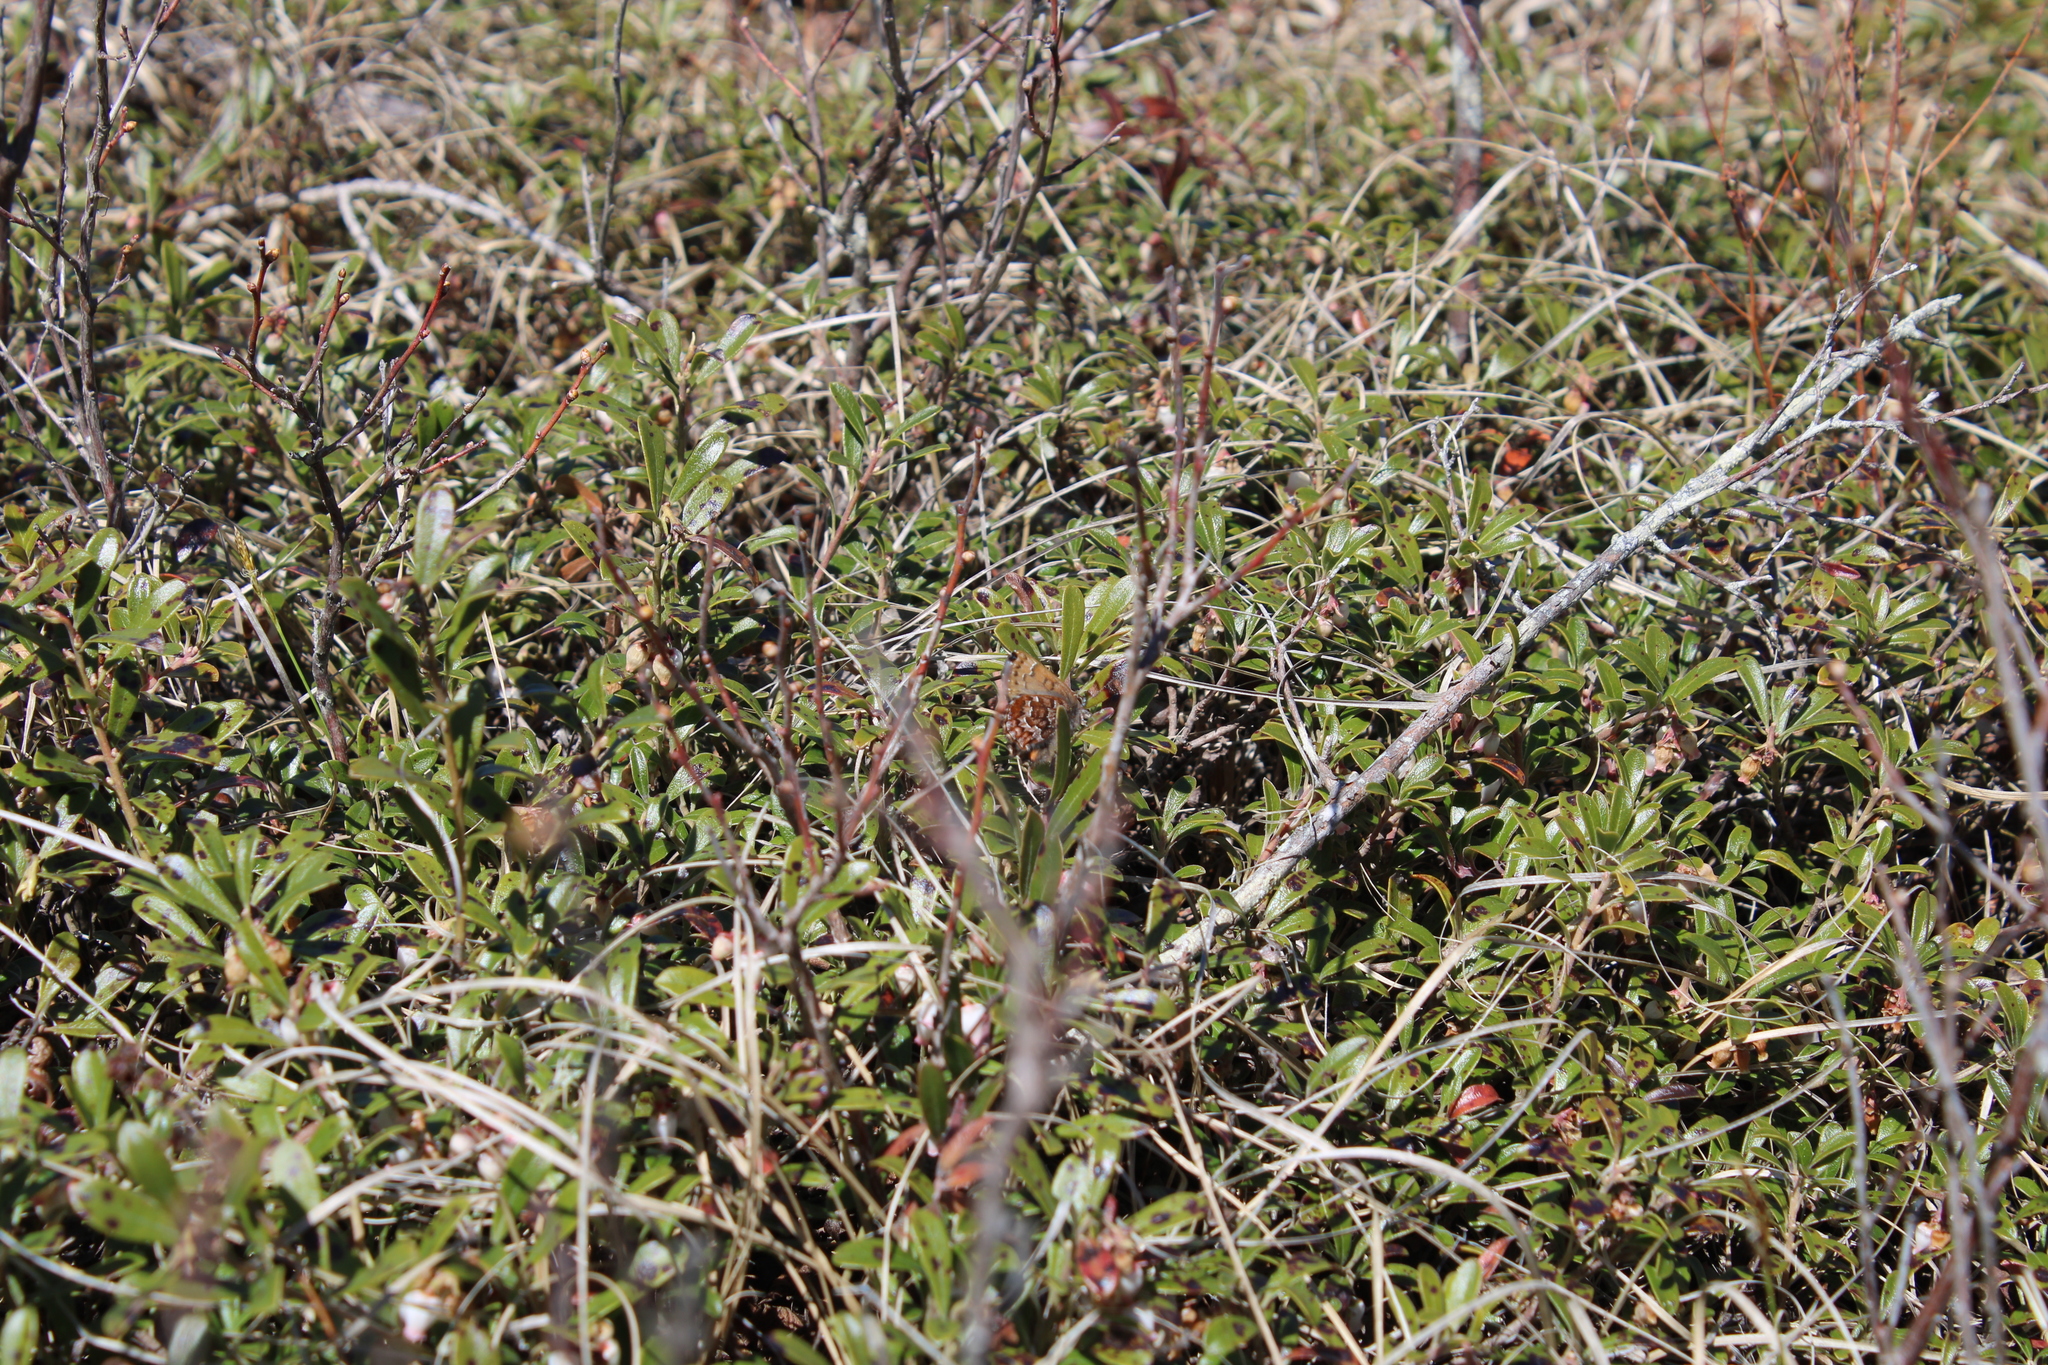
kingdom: Animalia
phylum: Arthropoda
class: Insecta
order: Lepidoptera
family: Lycaenidae
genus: Incisalia
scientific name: Incisalia niphon
